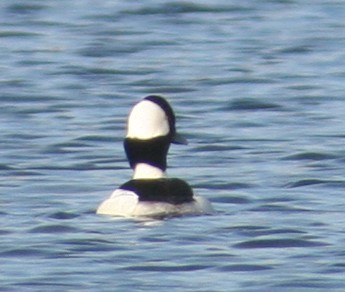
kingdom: Animalia
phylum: Chordata
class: Aves
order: Anseriformes
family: Anatidae
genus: Bucephala
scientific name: Bucephala albeola
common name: Bufflehead
